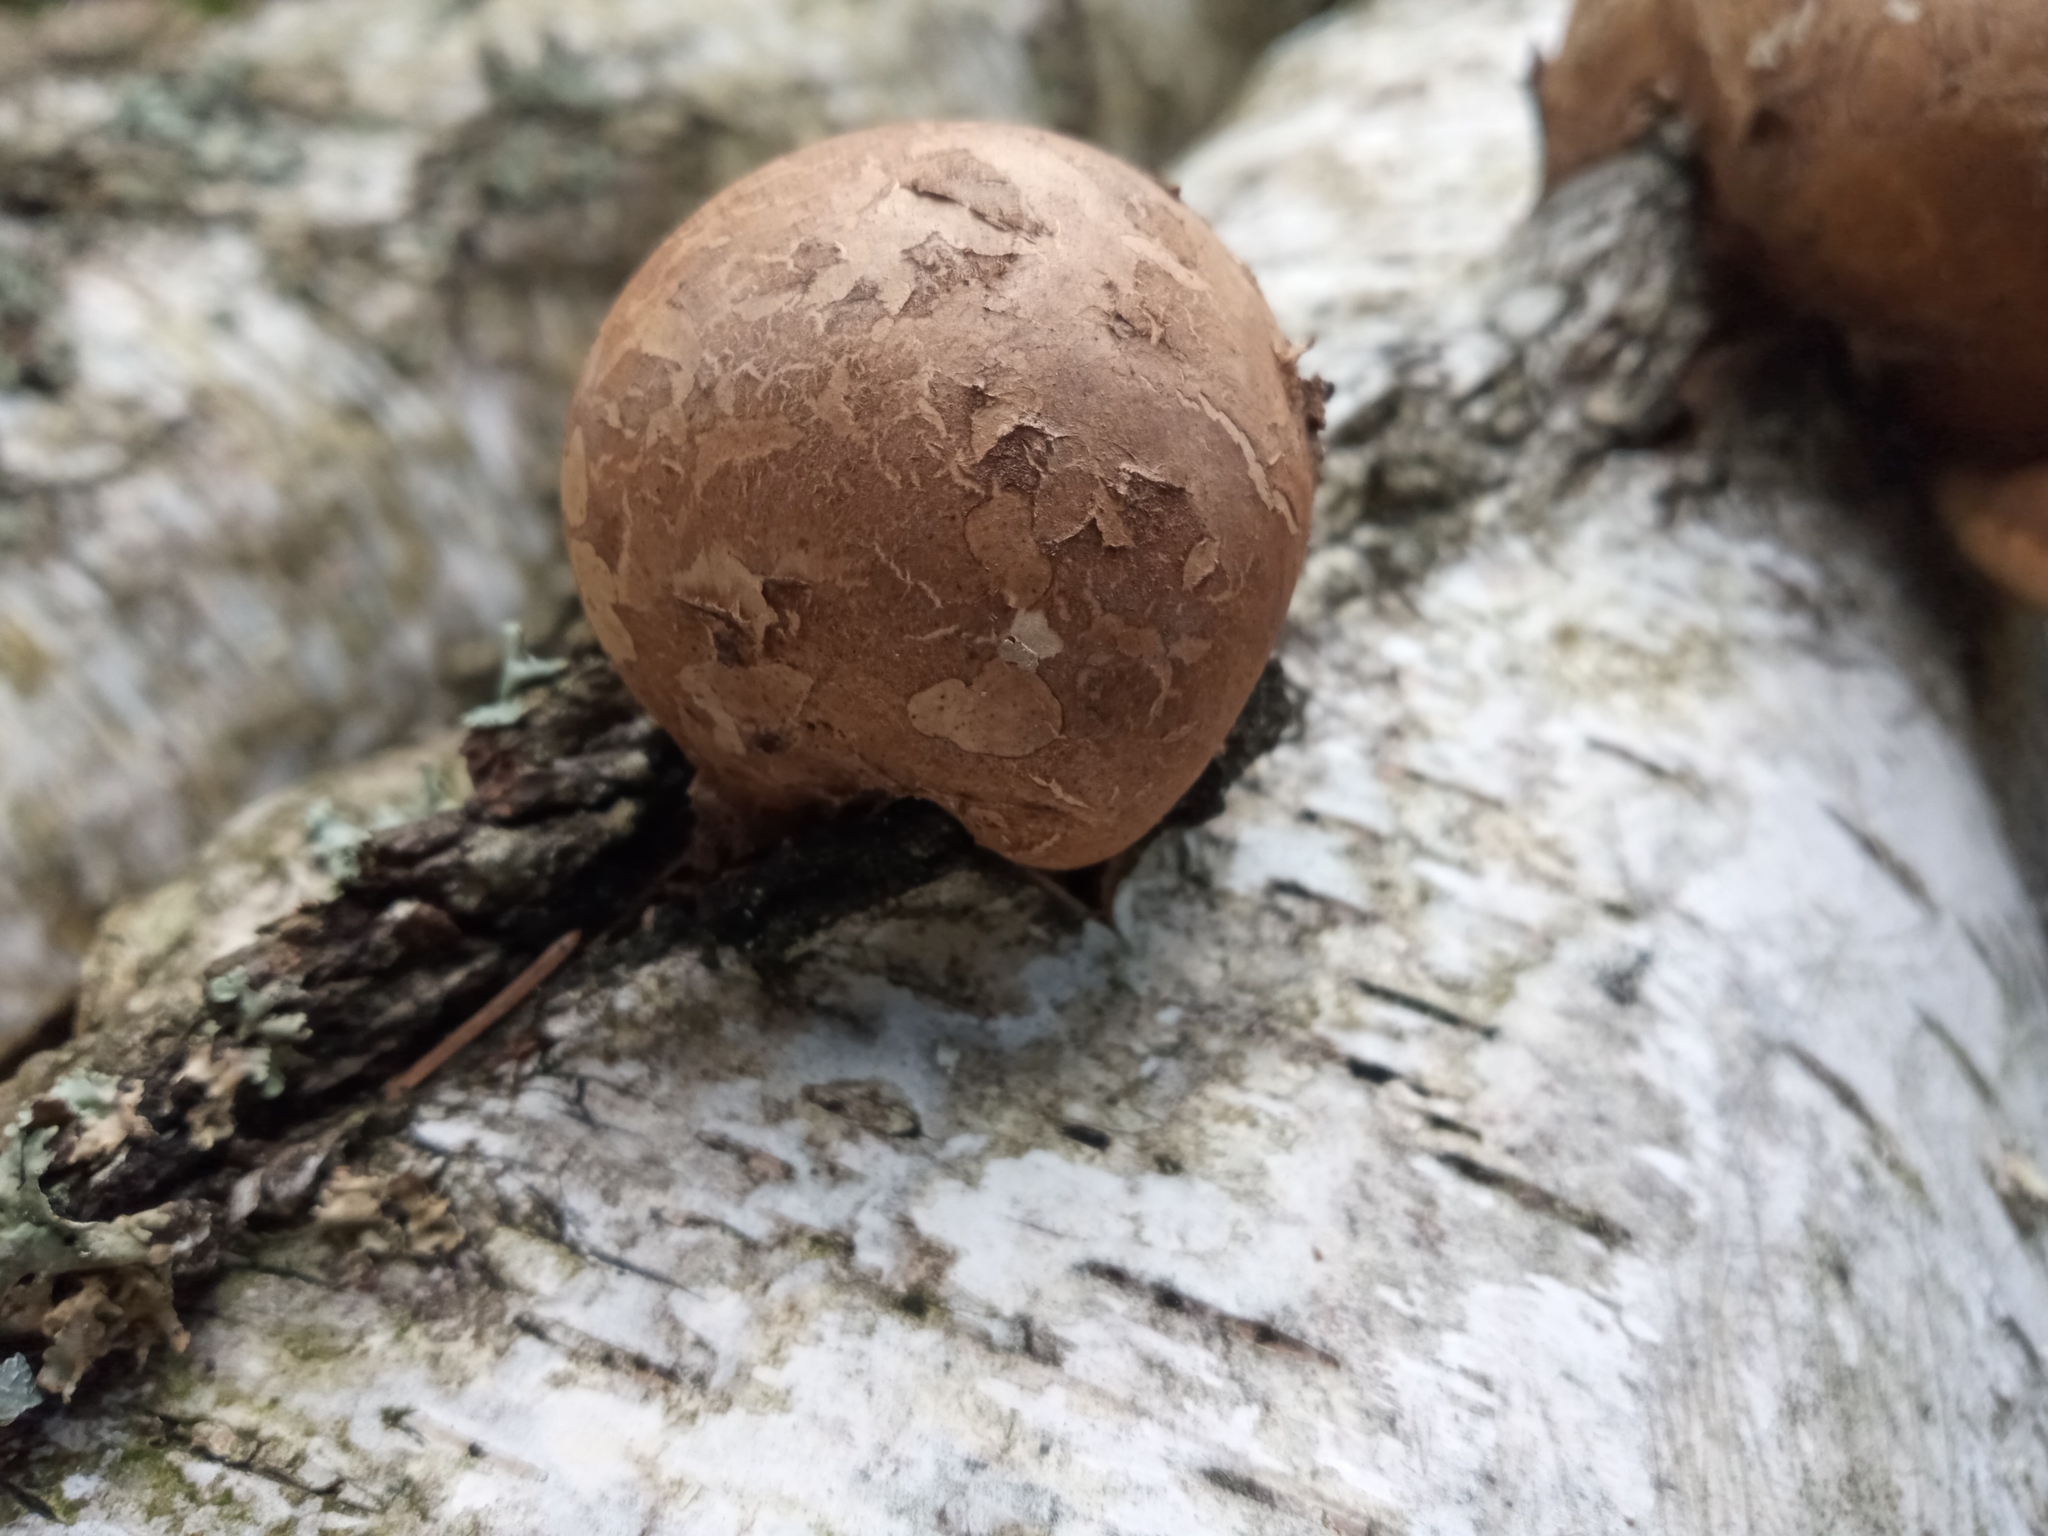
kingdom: Fungi
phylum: Basidiomycota
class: Agaricomycetes
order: Polyporales
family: Fomitopsidaceae
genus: Fomitopsis
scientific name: Fomitopsis betulina
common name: Birch polypore
